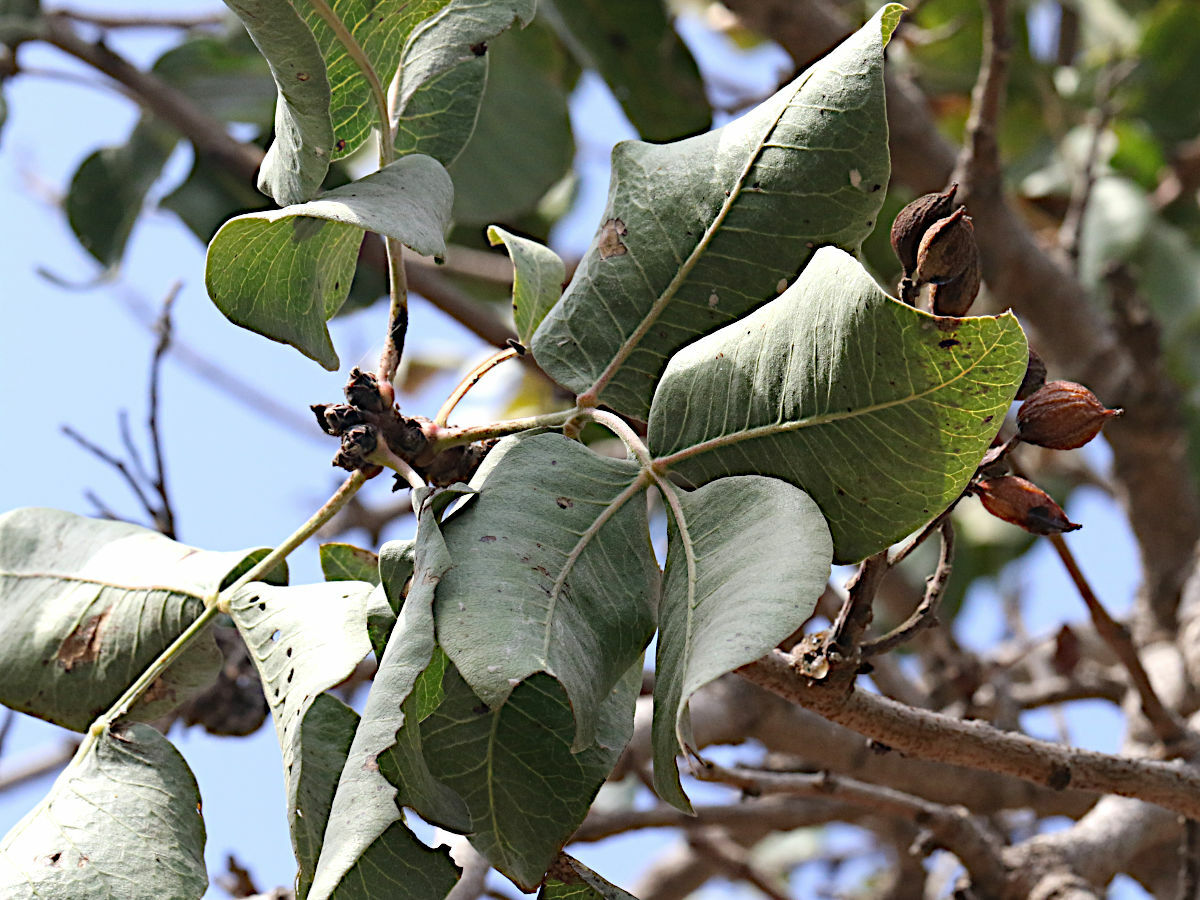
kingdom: Plantae
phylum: Tracheophyta
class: Magnoliopsida
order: Sapindales
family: Anacardiaceae
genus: Pistacia
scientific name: Pistacia vera
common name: Pistachio
